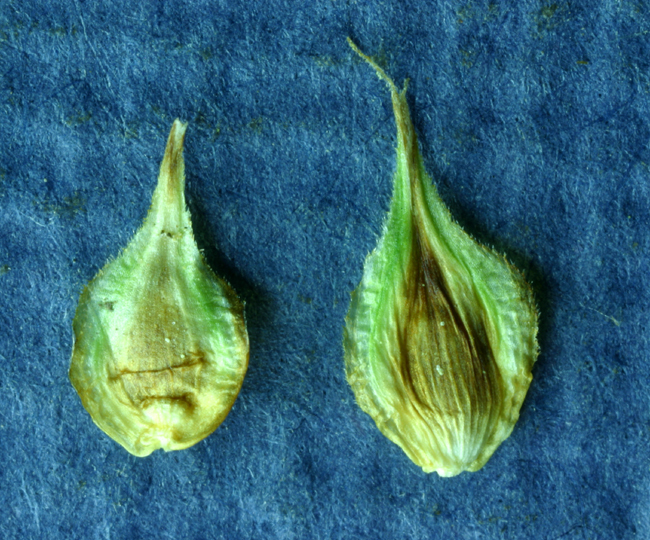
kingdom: Plantae
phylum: Tracheophyta
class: Liliopsida
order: Poales
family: Cyperaceae
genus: Carex
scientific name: Carex straminiformis
